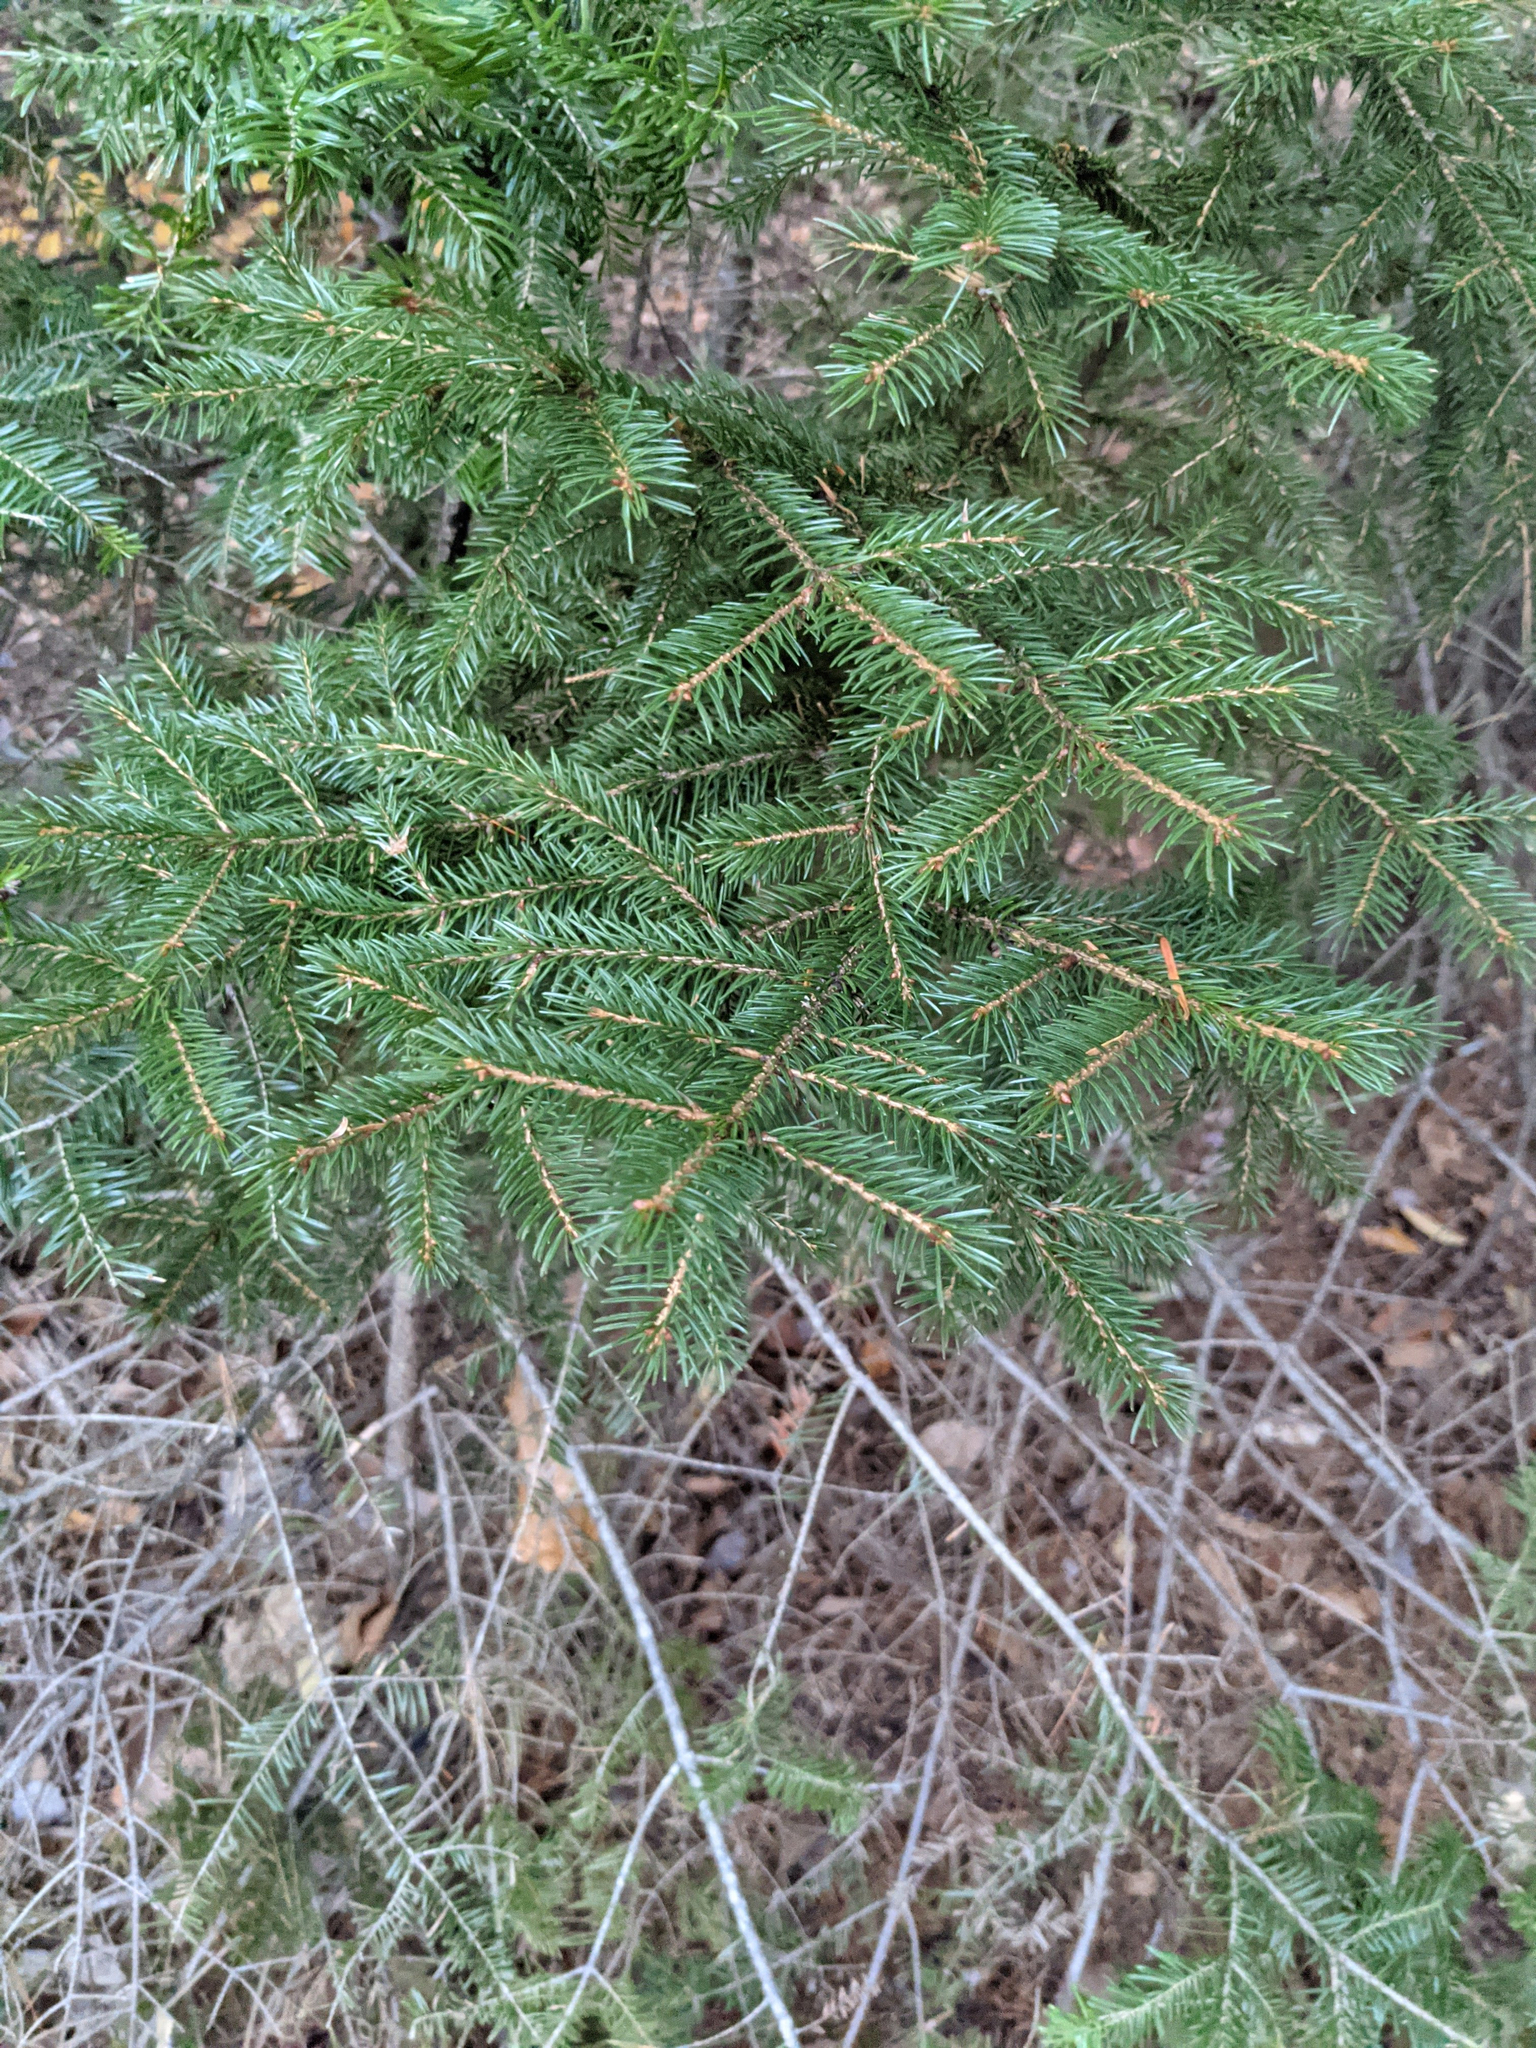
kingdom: Plantae
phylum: Tracheophyta
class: Pinopsida
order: Pinales
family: Pinaceae
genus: Picea
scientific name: Picea rubens
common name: Red spruce
